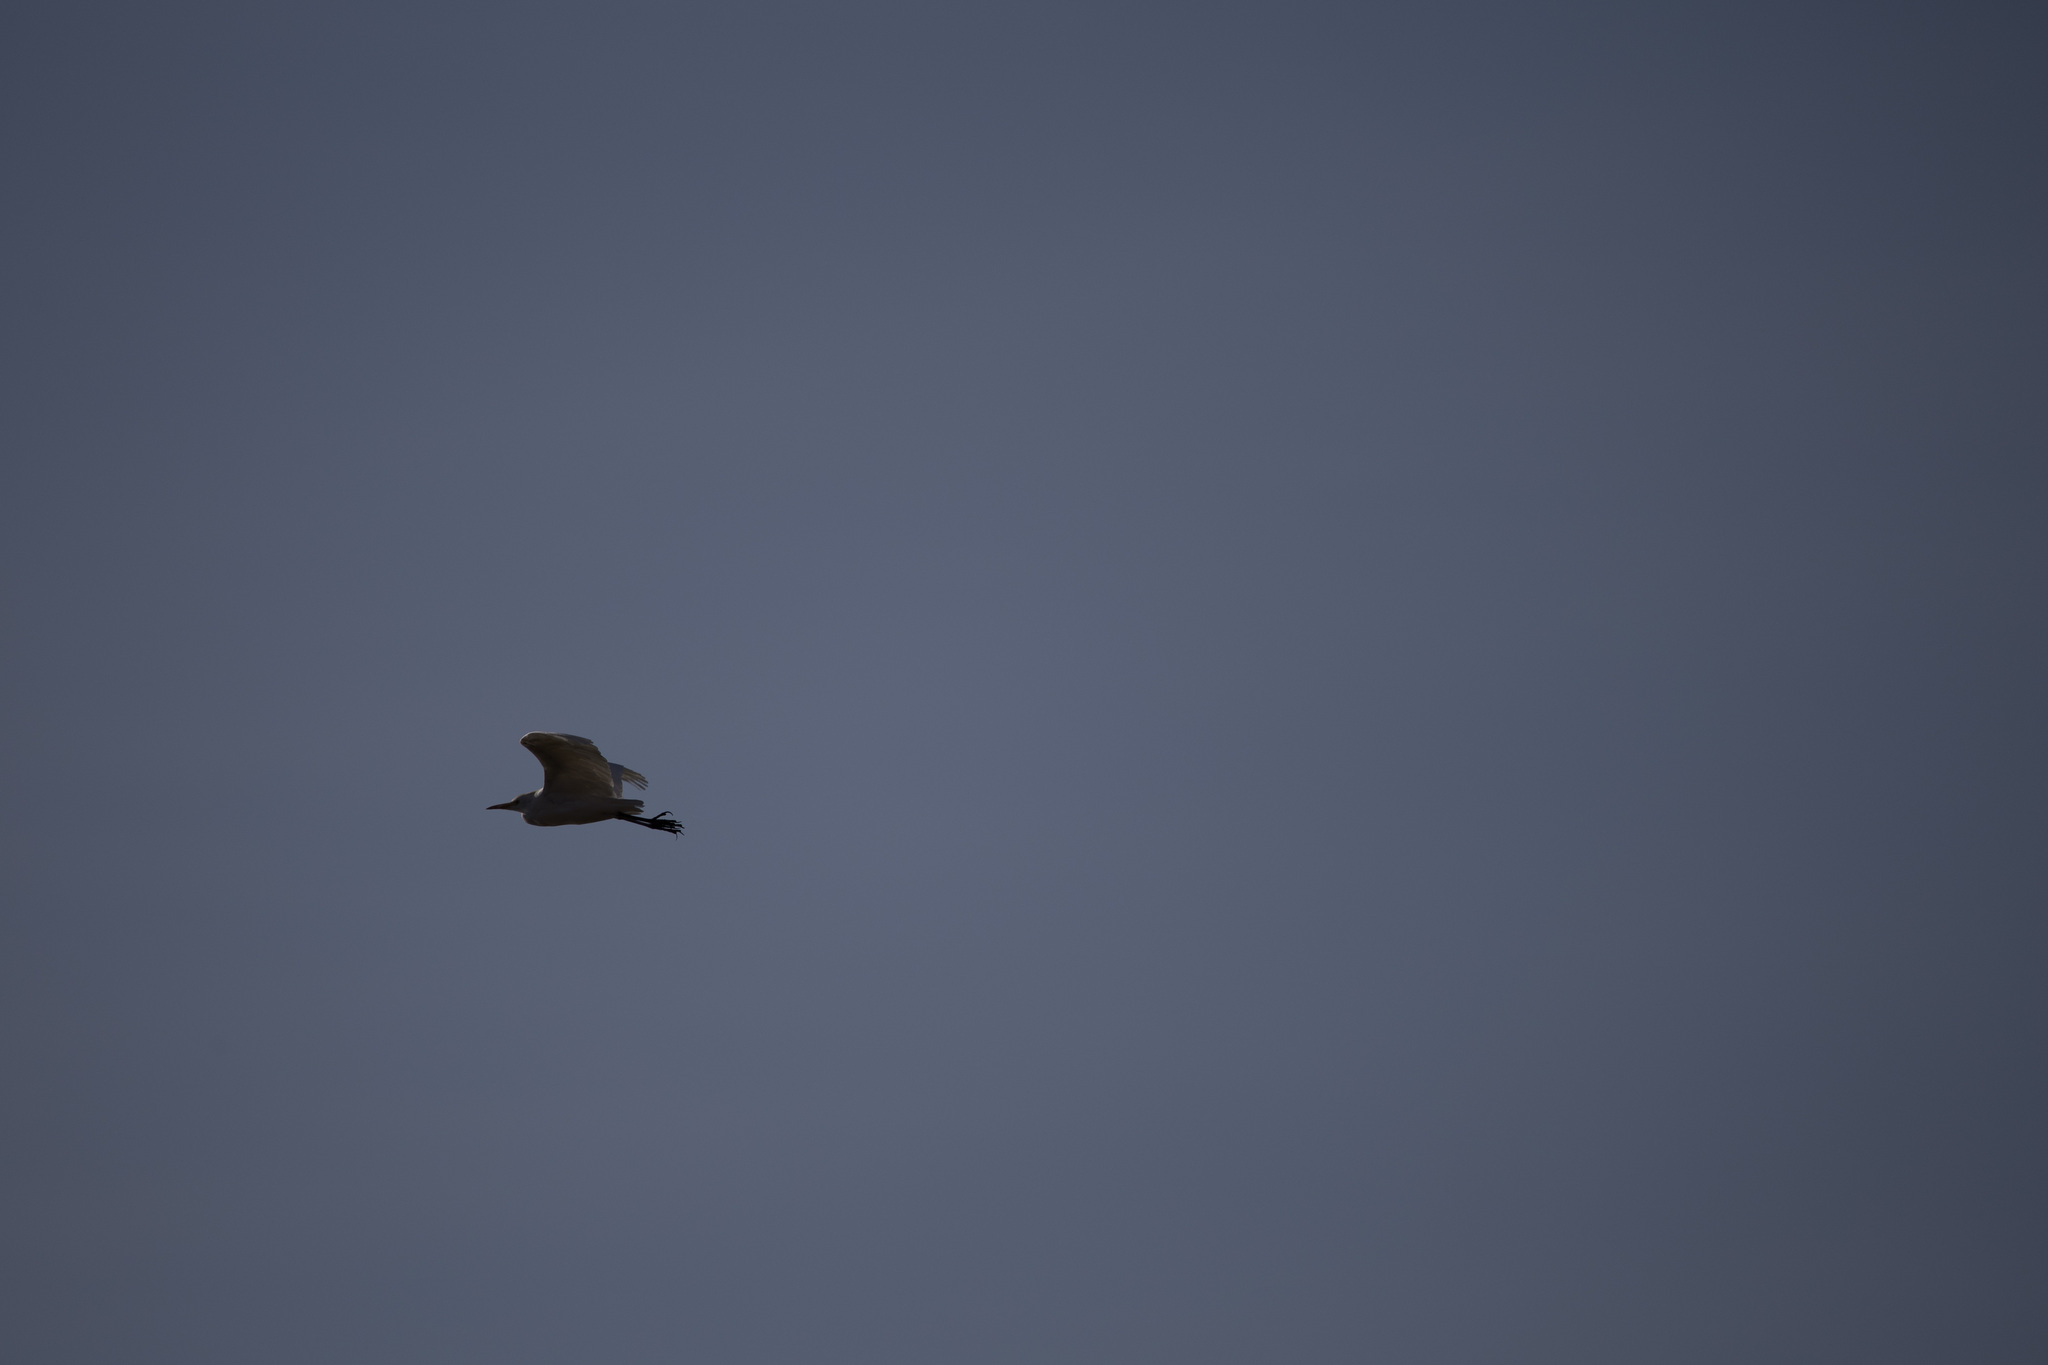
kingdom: Animalia
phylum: Chordata
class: Aves
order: Pelecaniformes
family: Ardeidae
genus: Bubulcus
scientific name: Bubulcus ibis
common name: Cattle egret
